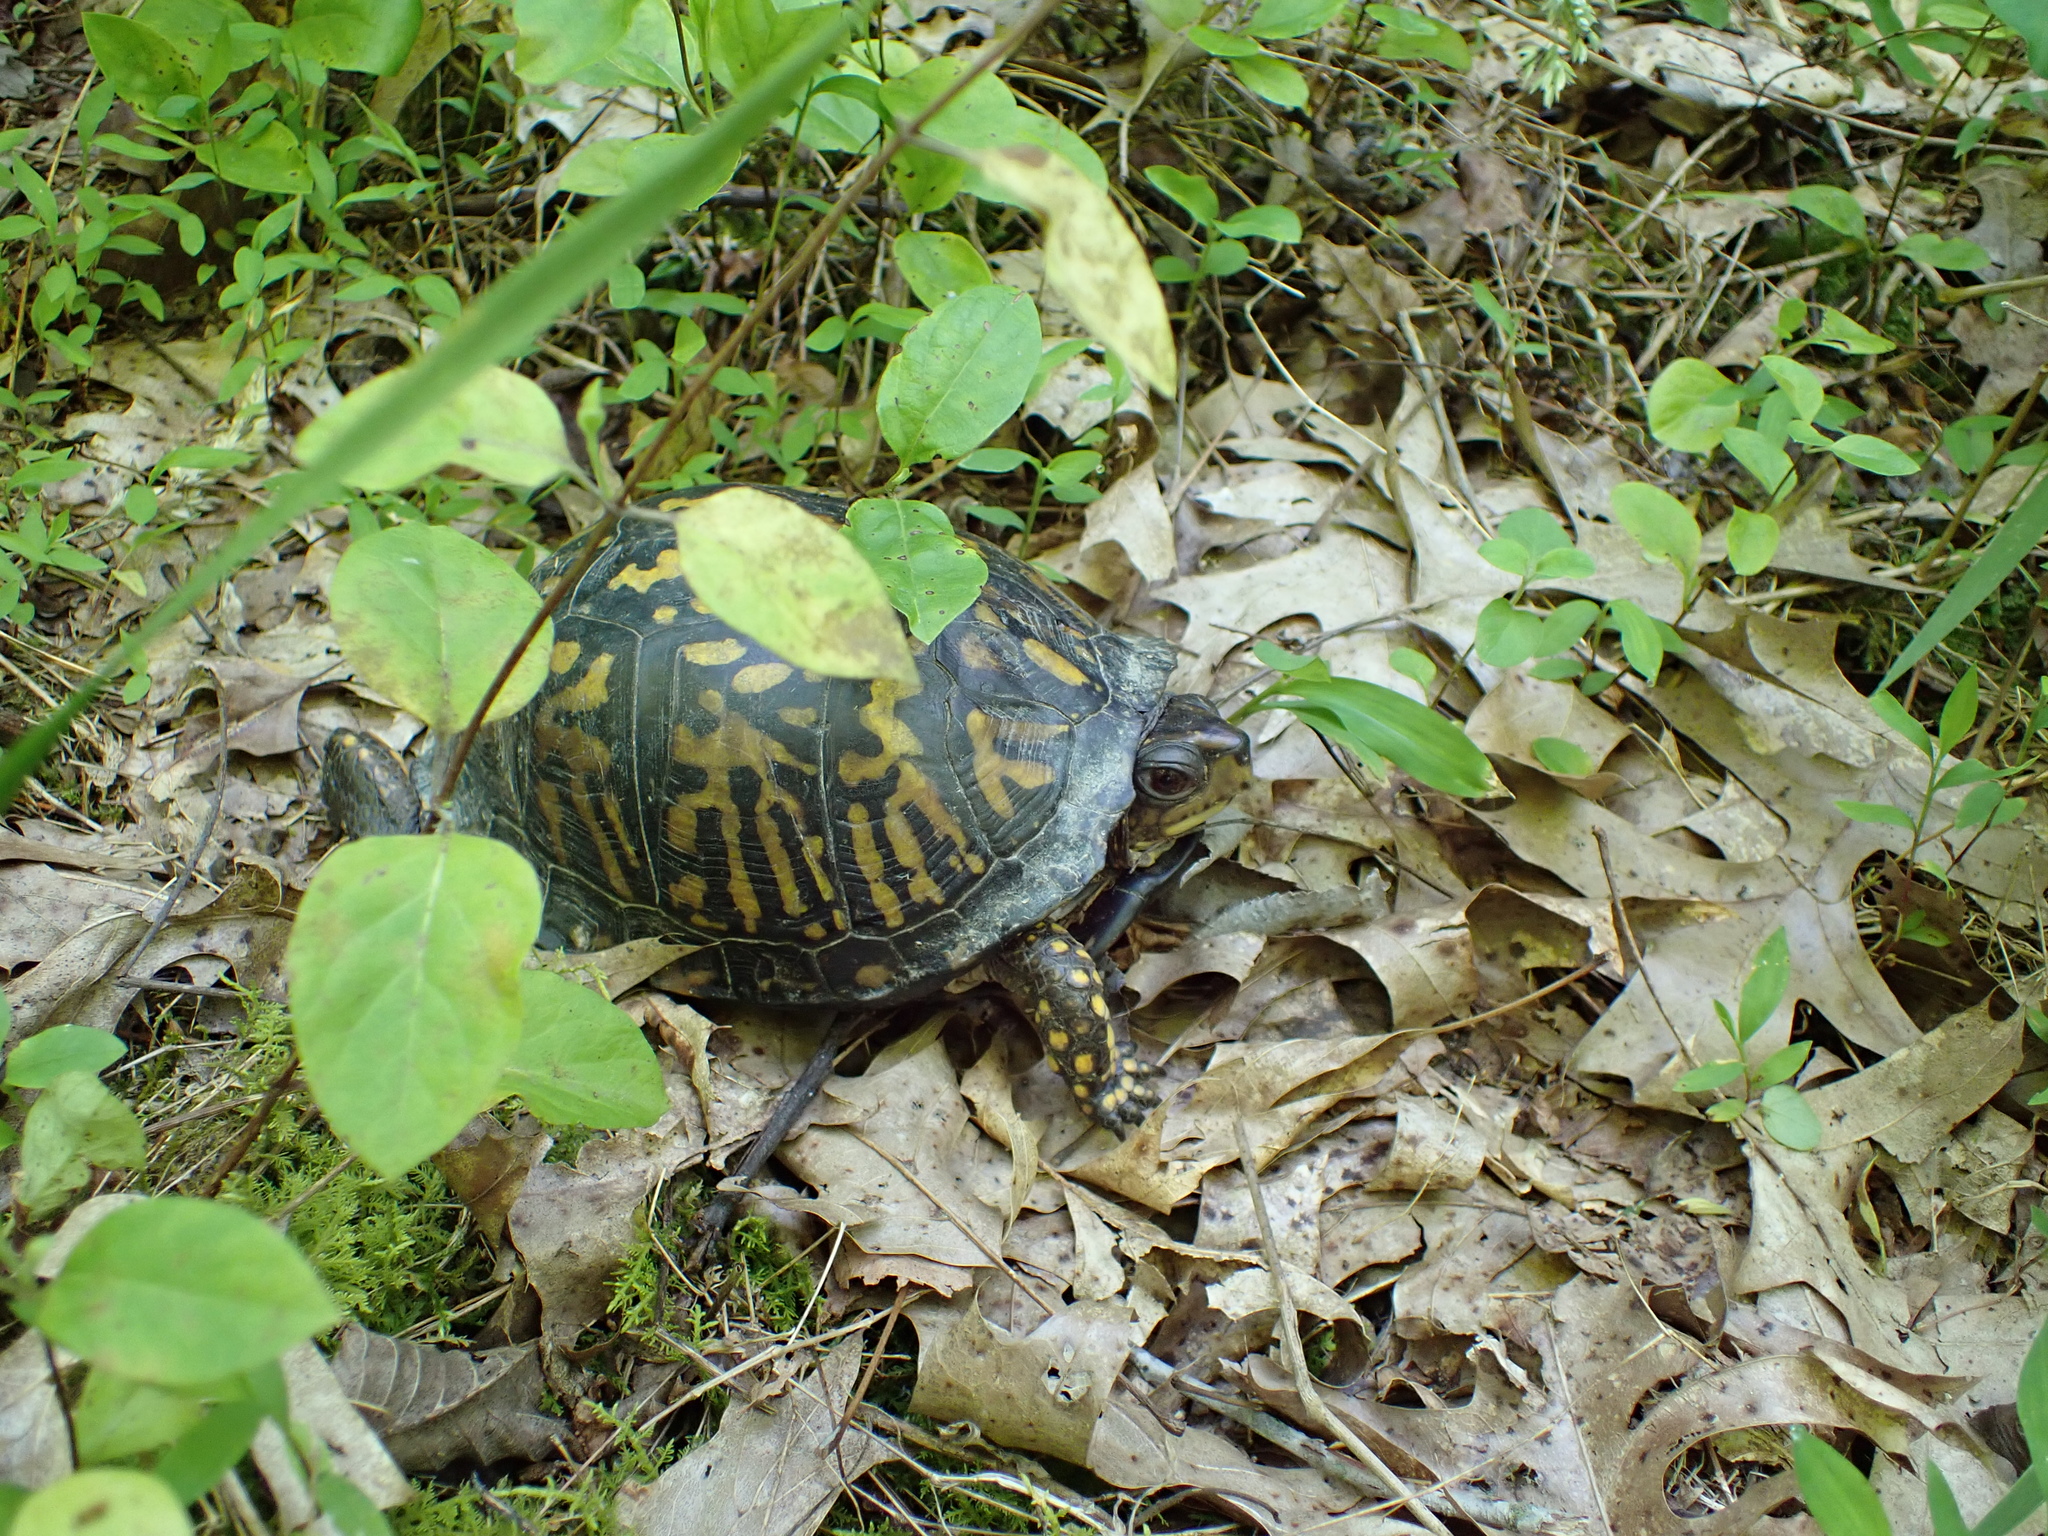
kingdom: Animalia
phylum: Chordata
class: Testudines
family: Emydidae
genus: Terrapene
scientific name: Terrapene carolina
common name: Common box turtle
